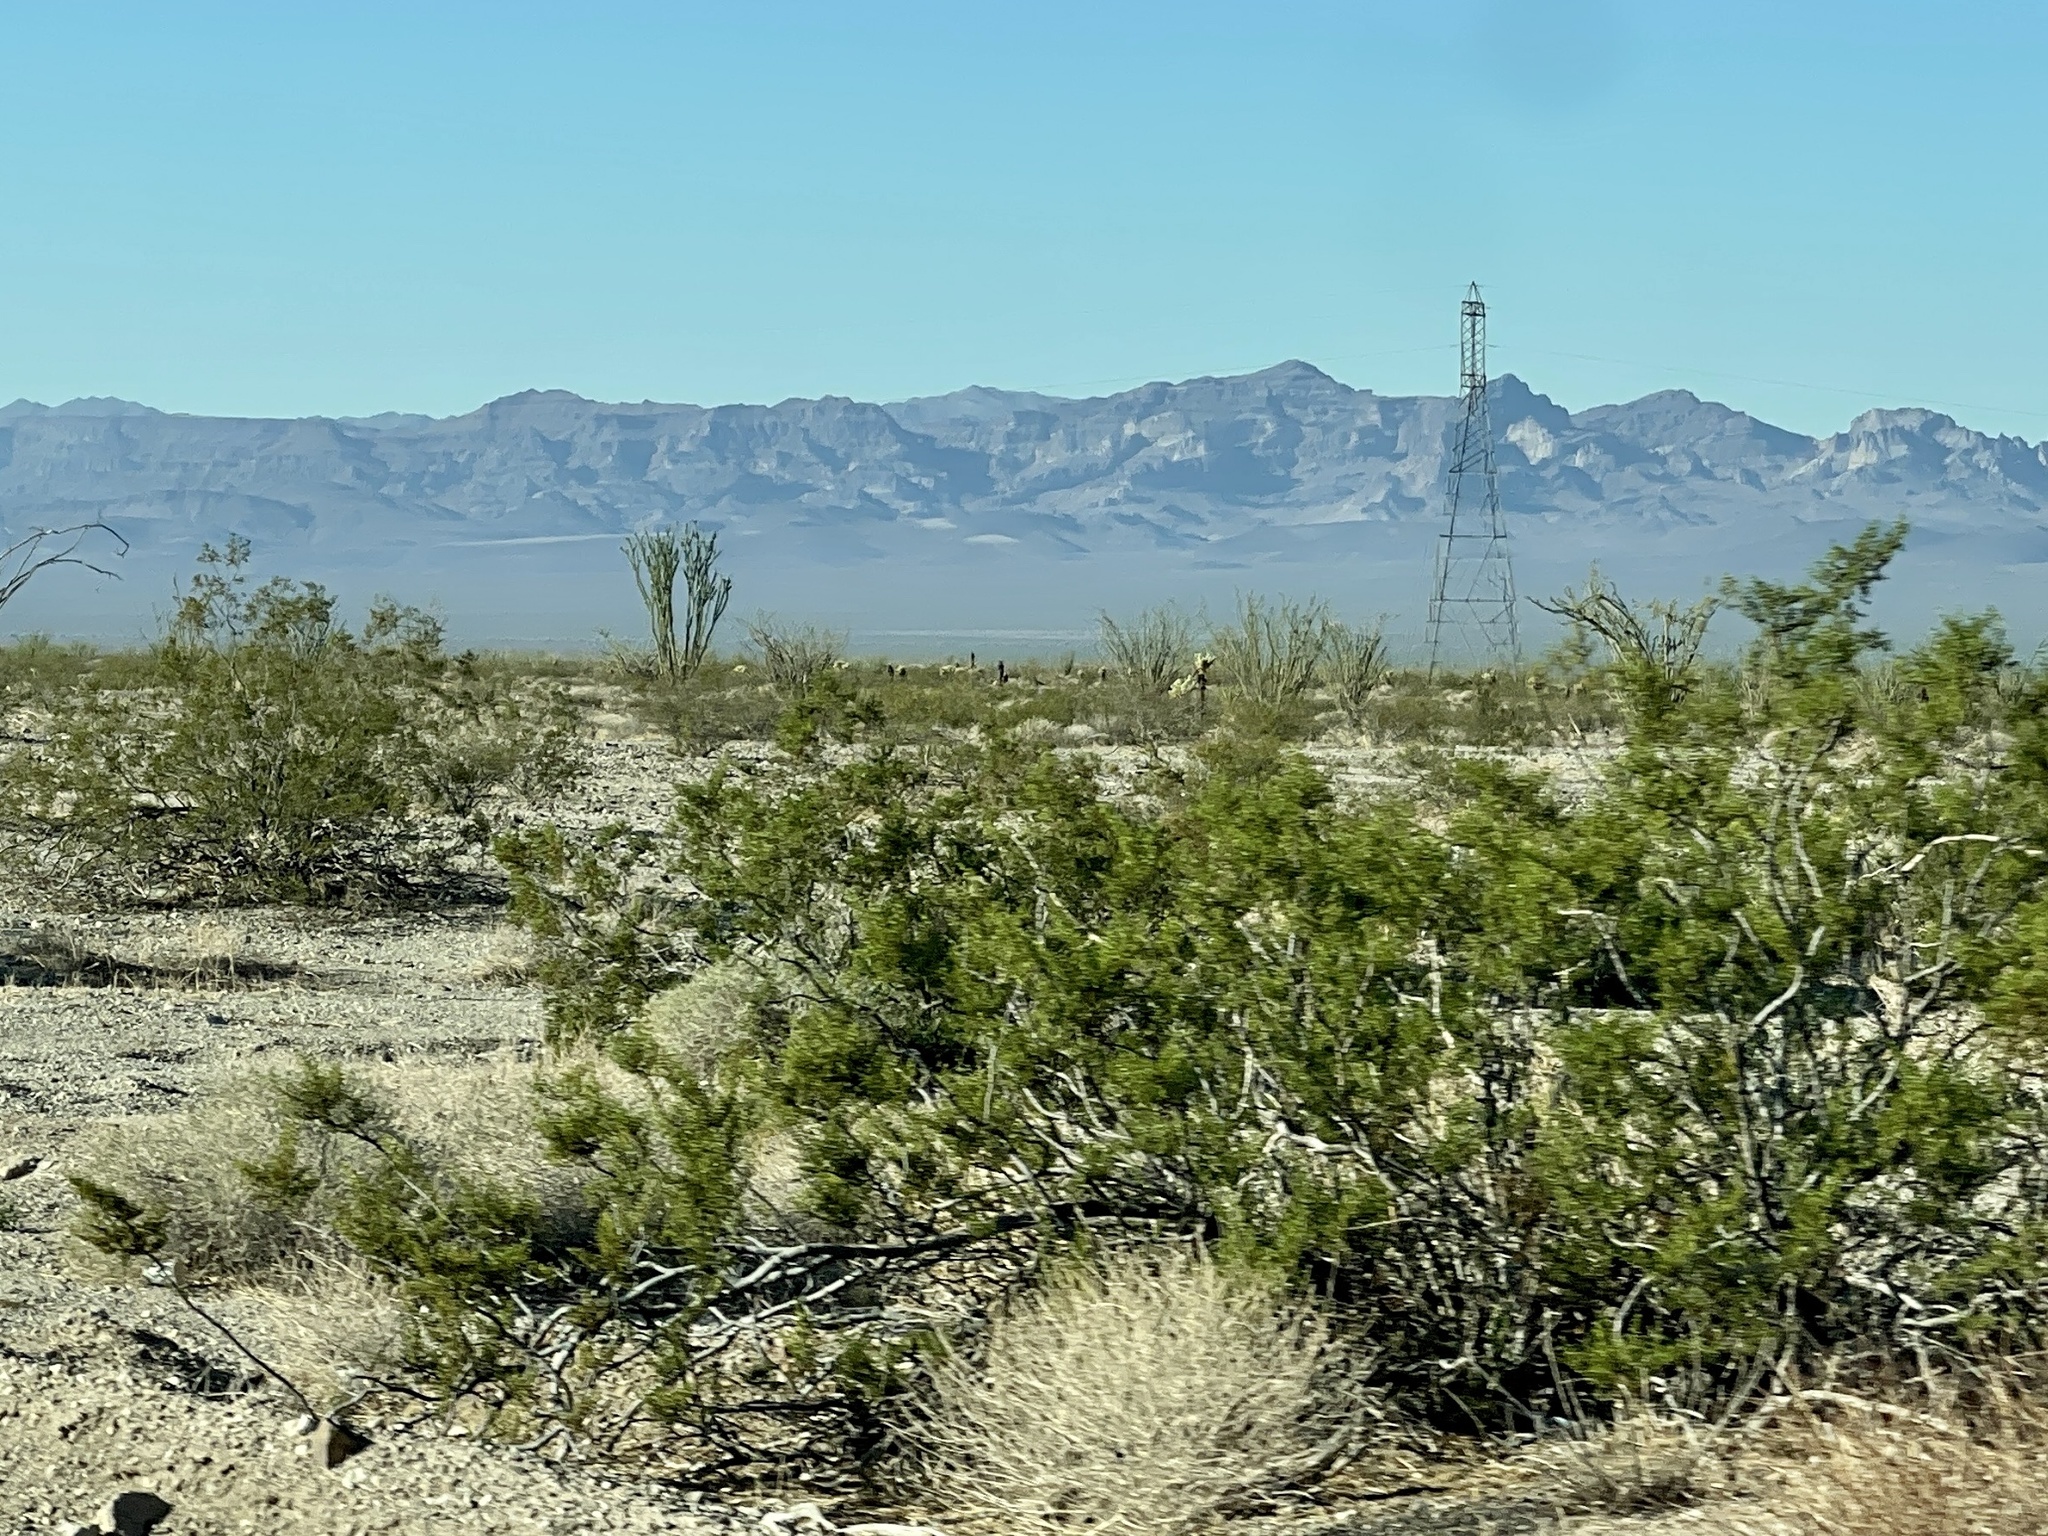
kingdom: Plantae
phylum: Tracheophyta
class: Magnoliopsida
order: Zygophyllales
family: Zygophyllaceae
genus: Larrea
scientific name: Larrea tridentata
